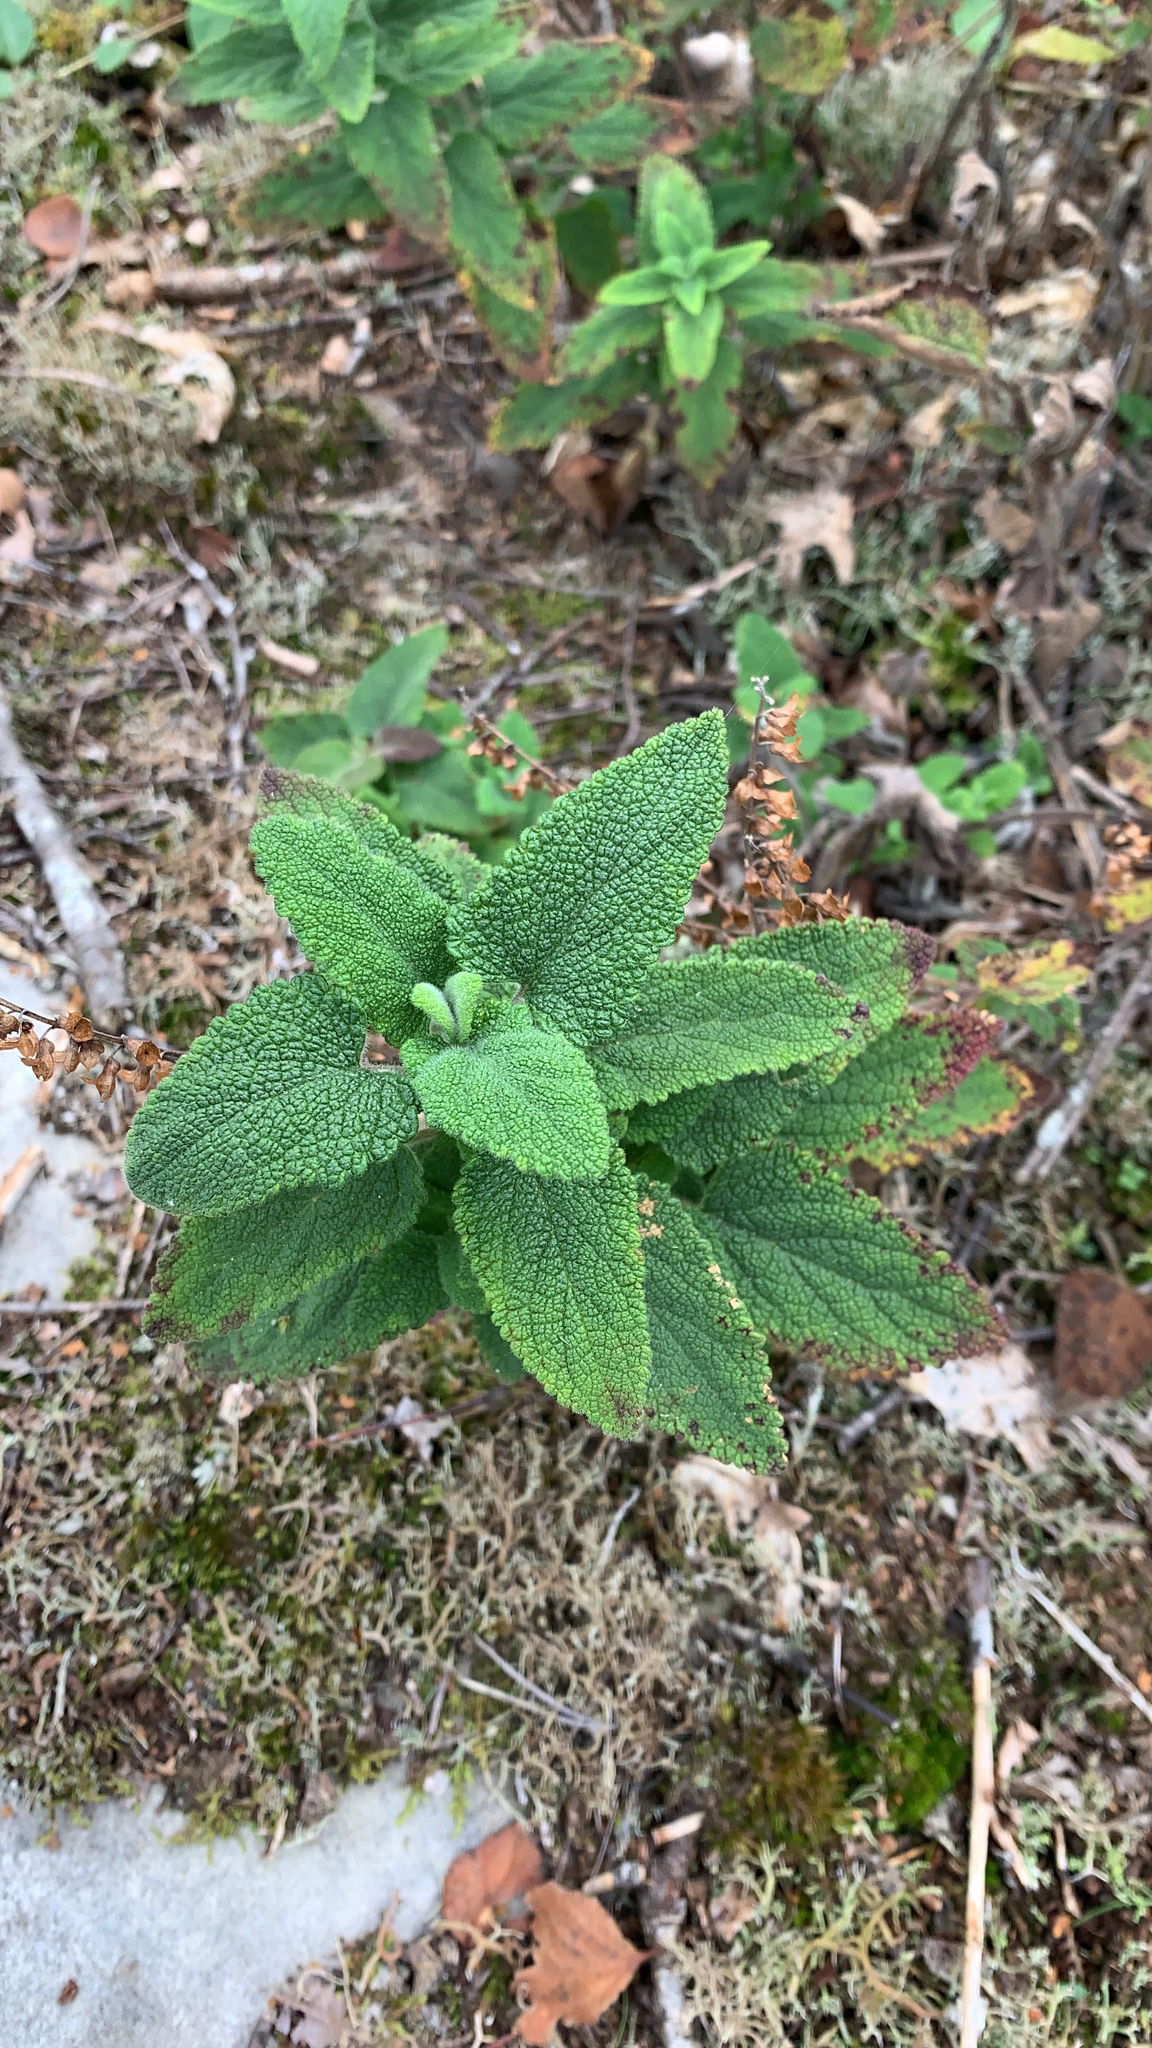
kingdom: Plantae
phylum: Tracheophyta
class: Magnoliopsida
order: Lamiales
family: Lamiaceae
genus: Teucrium
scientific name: Teucrium scorodonia
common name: Woodland germander
